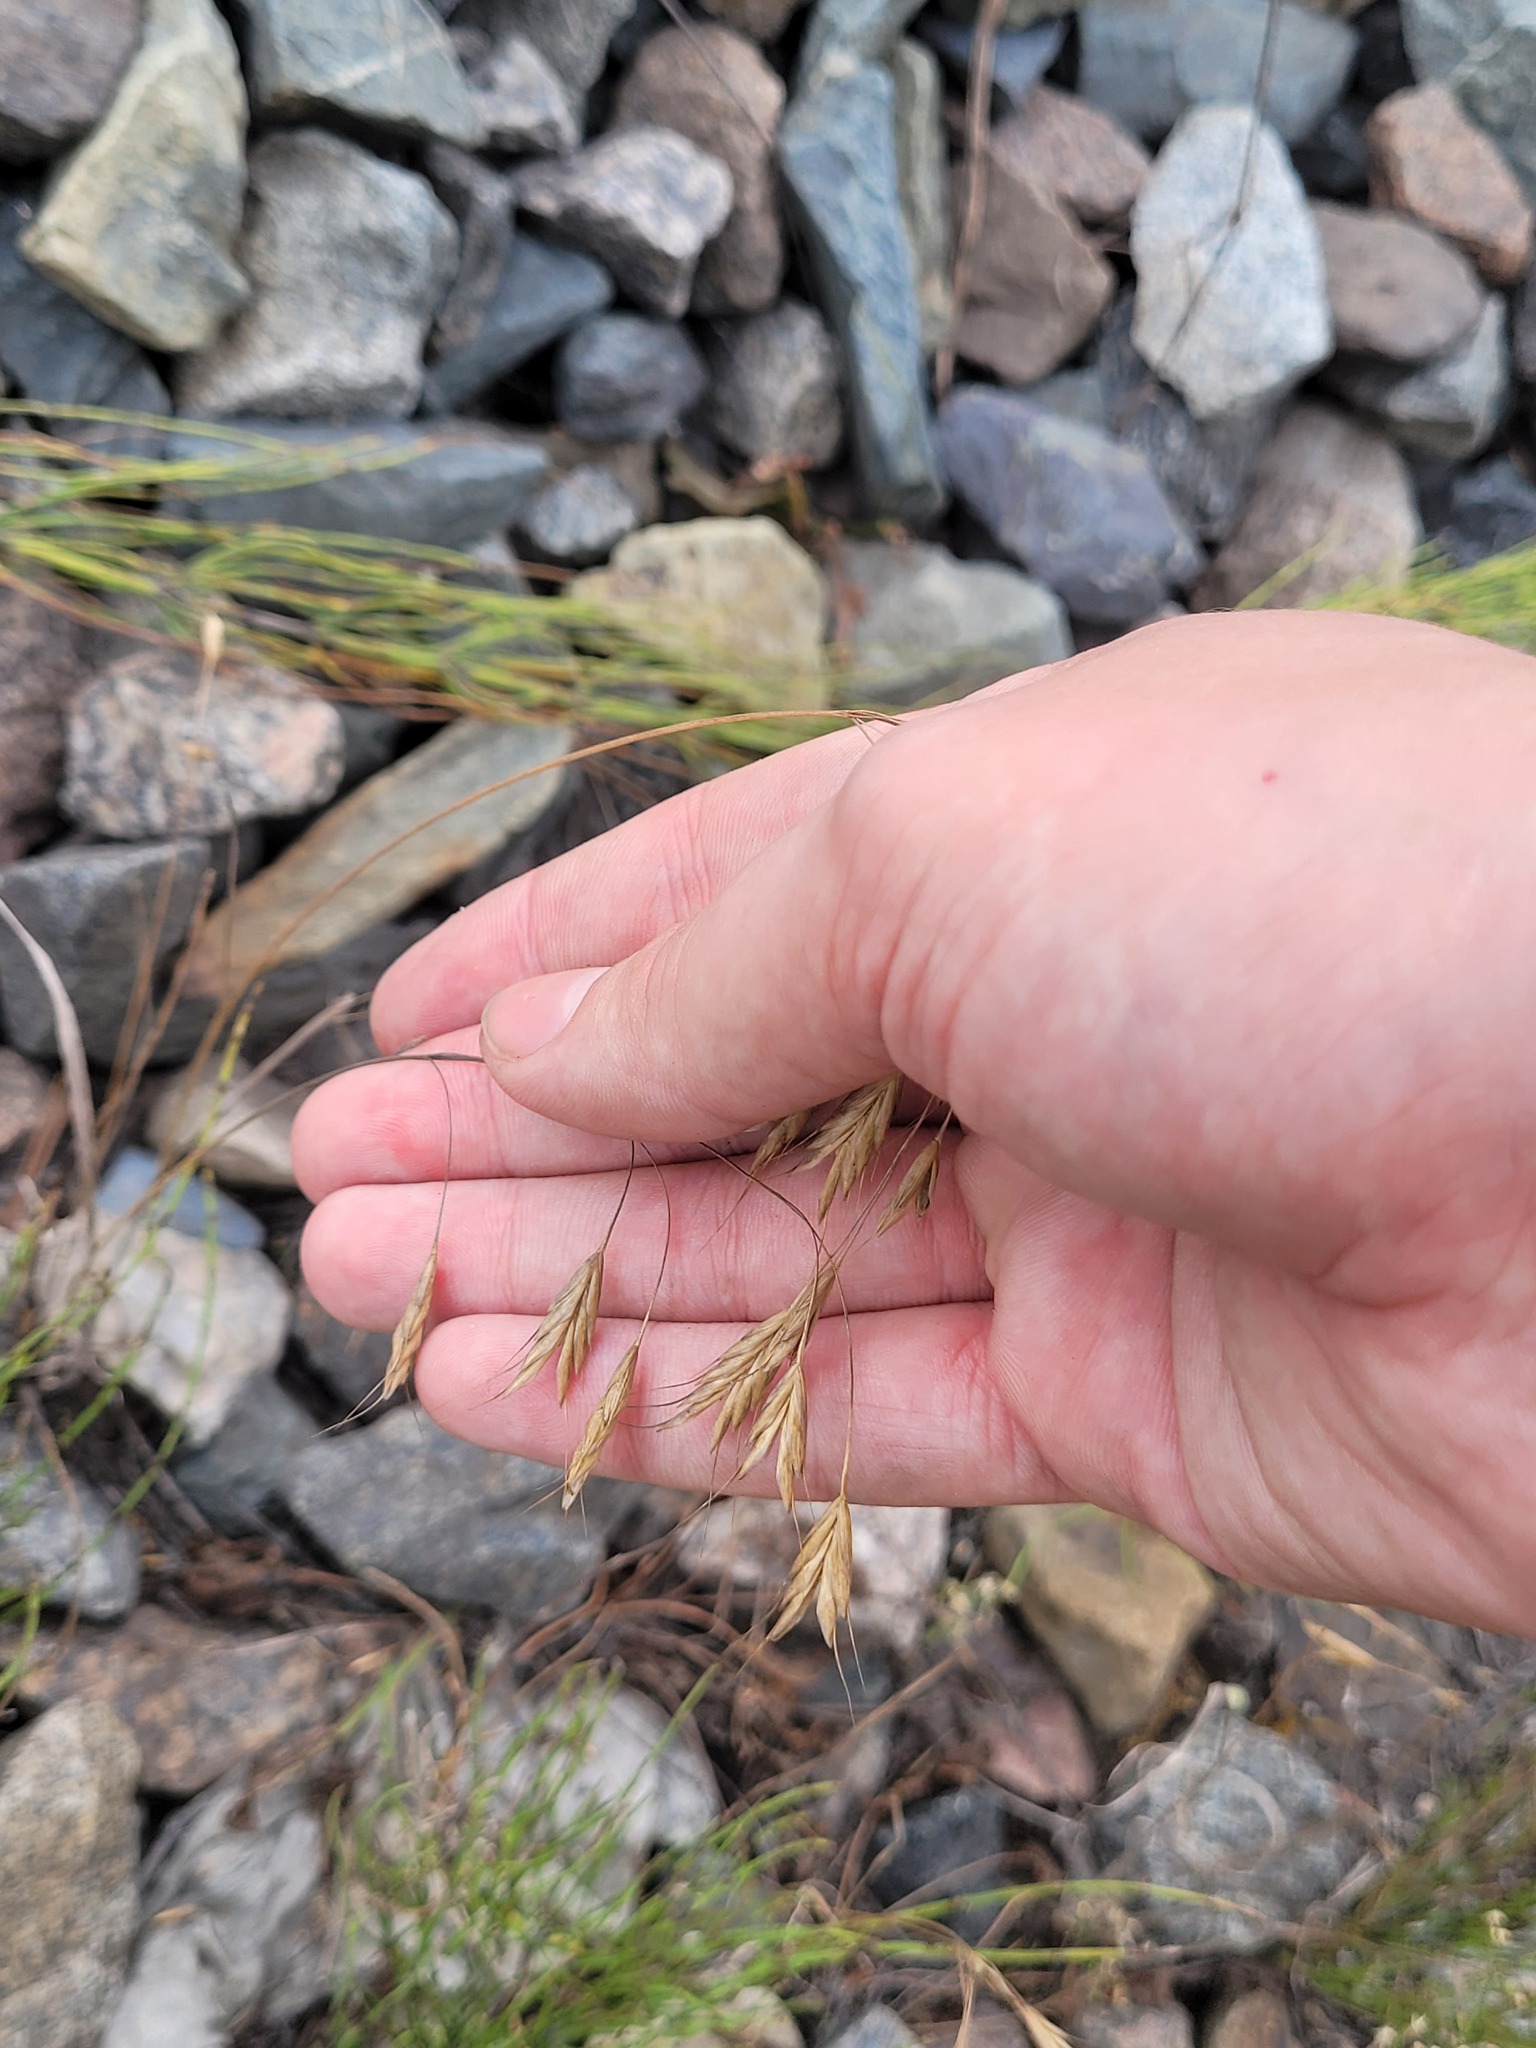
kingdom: Plantae
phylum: Tracheophyta
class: Liliopsida
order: Poales
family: Poaceae
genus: Bromus
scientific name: Bromus japonicus
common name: Japanese brome
